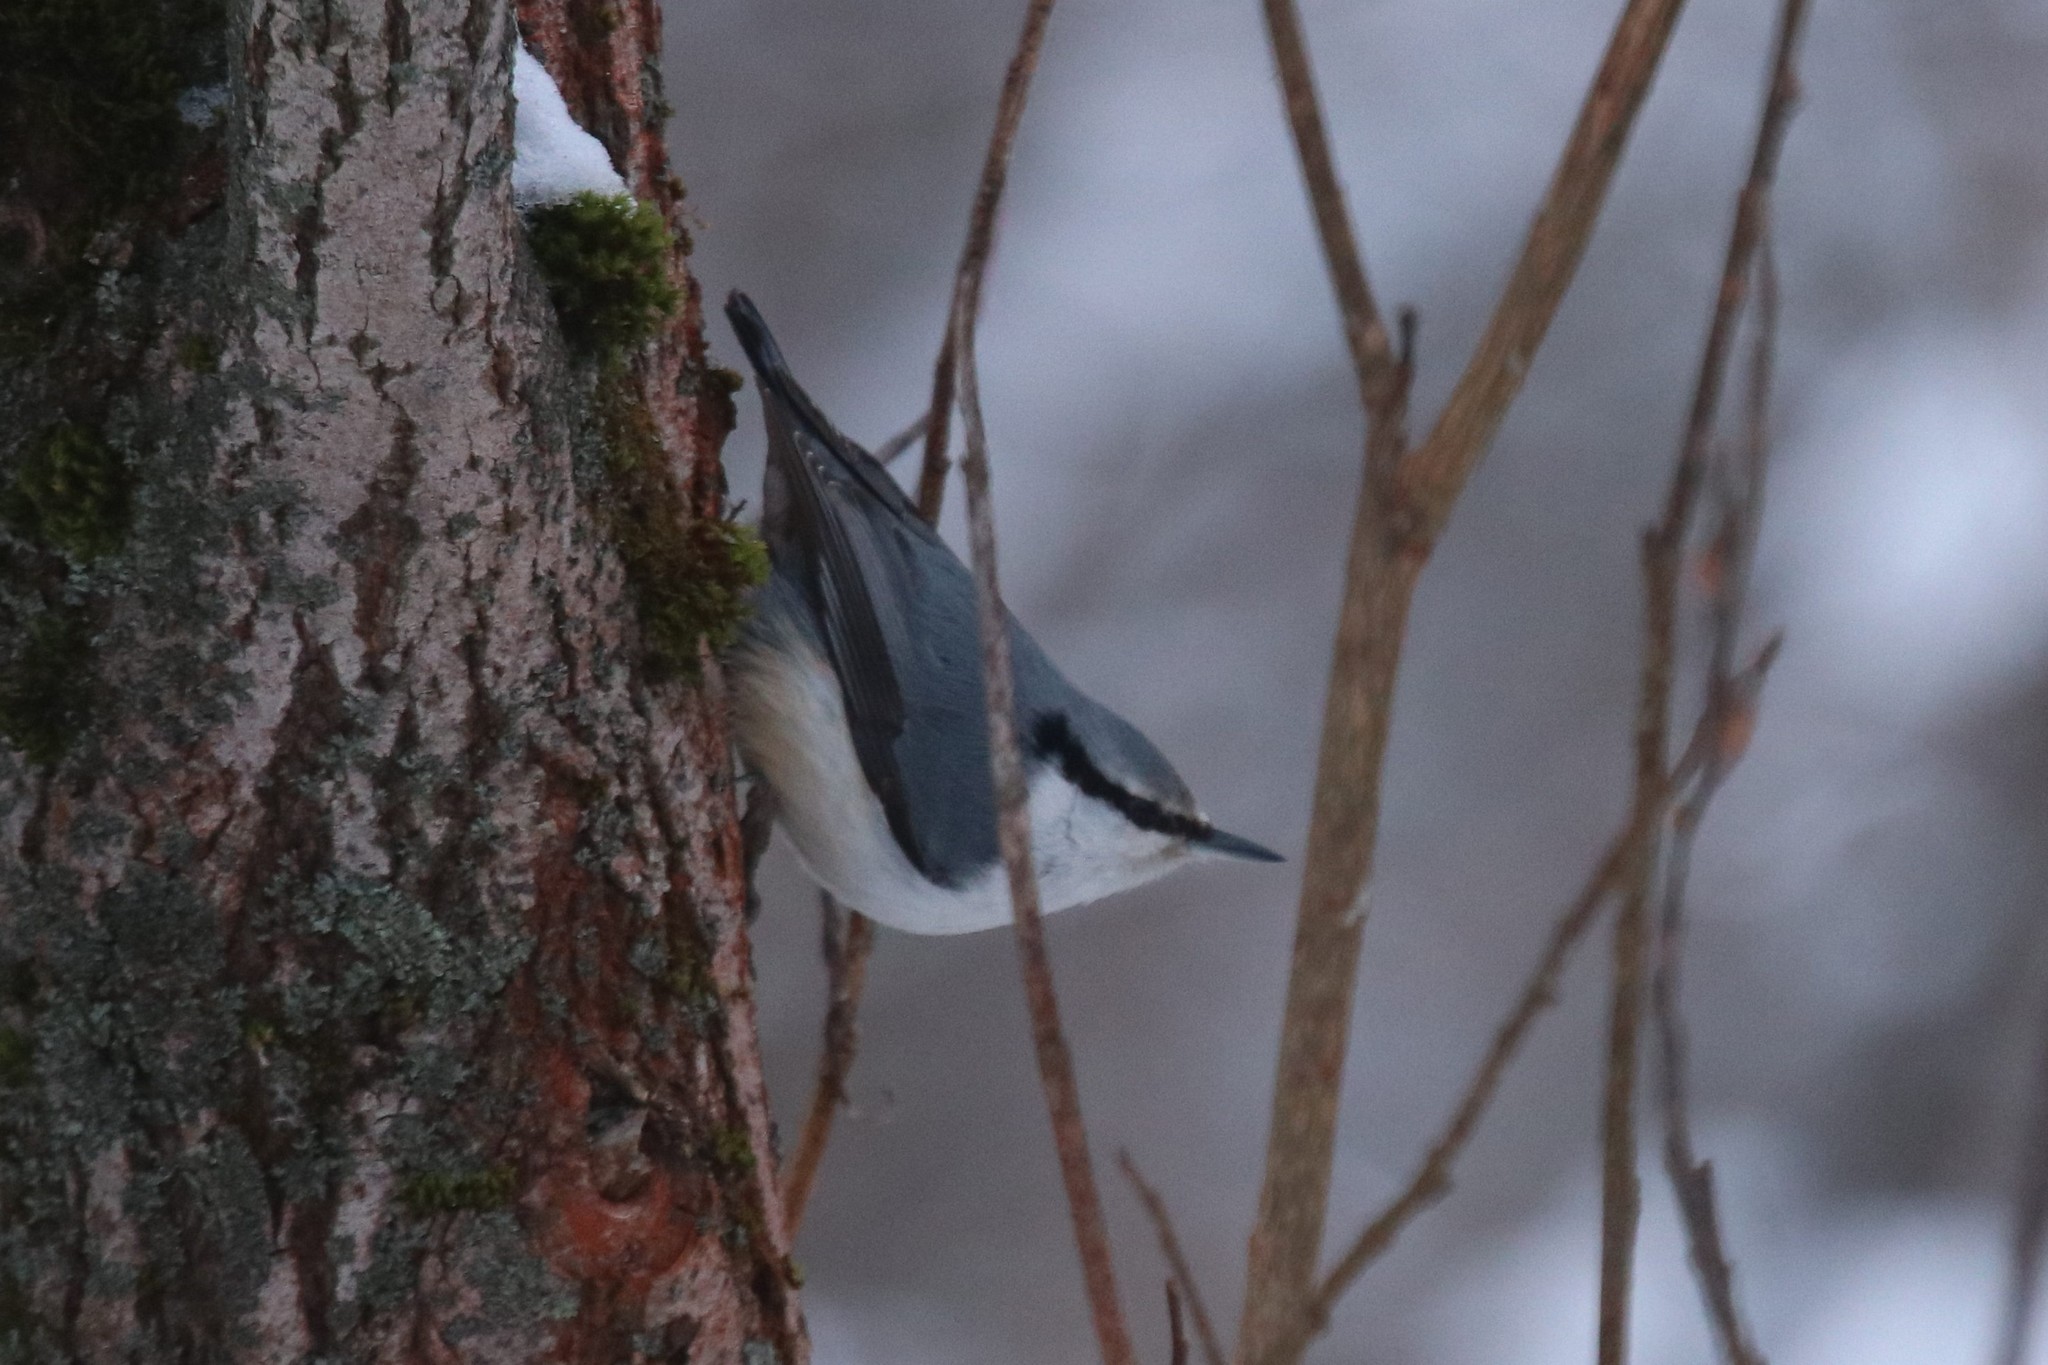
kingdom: Animalia
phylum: Chordata
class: Aves
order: Passeriformes
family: Sittidae
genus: Sitta
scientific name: Sitta europaea
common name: Eurasian nuthatch
